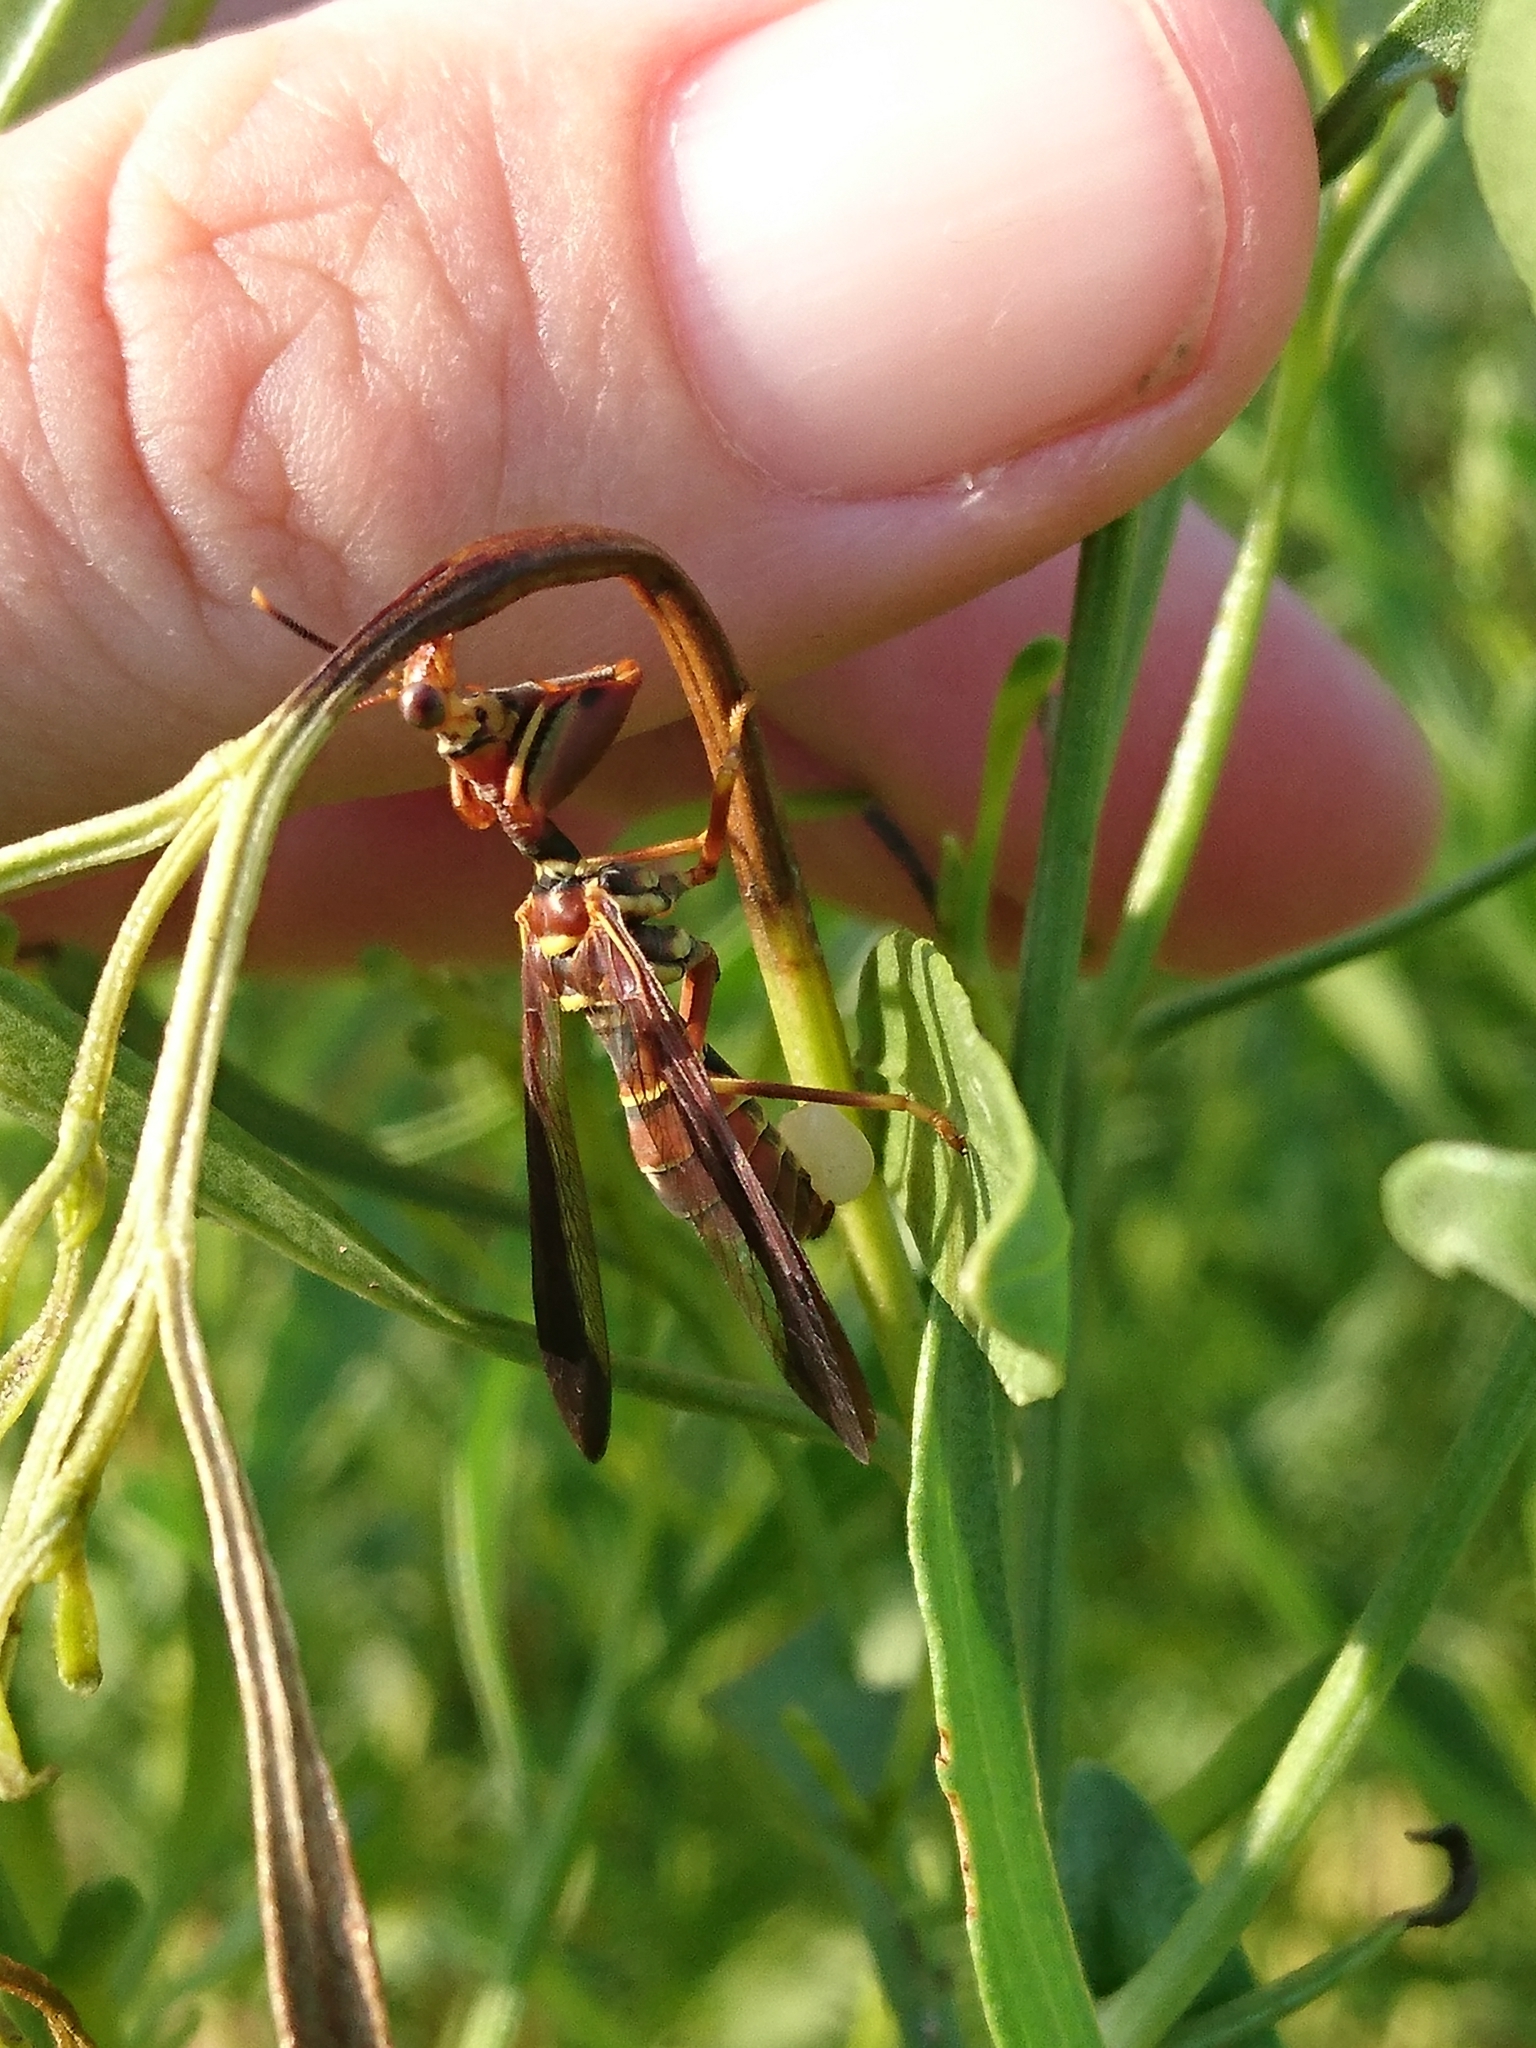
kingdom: Animalia
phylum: Arthropoda
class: Insecta
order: Neuroptera
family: Mantispidae
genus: Climaciella
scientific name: Climaciella brunnea
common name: Brown wasp mantidfly
